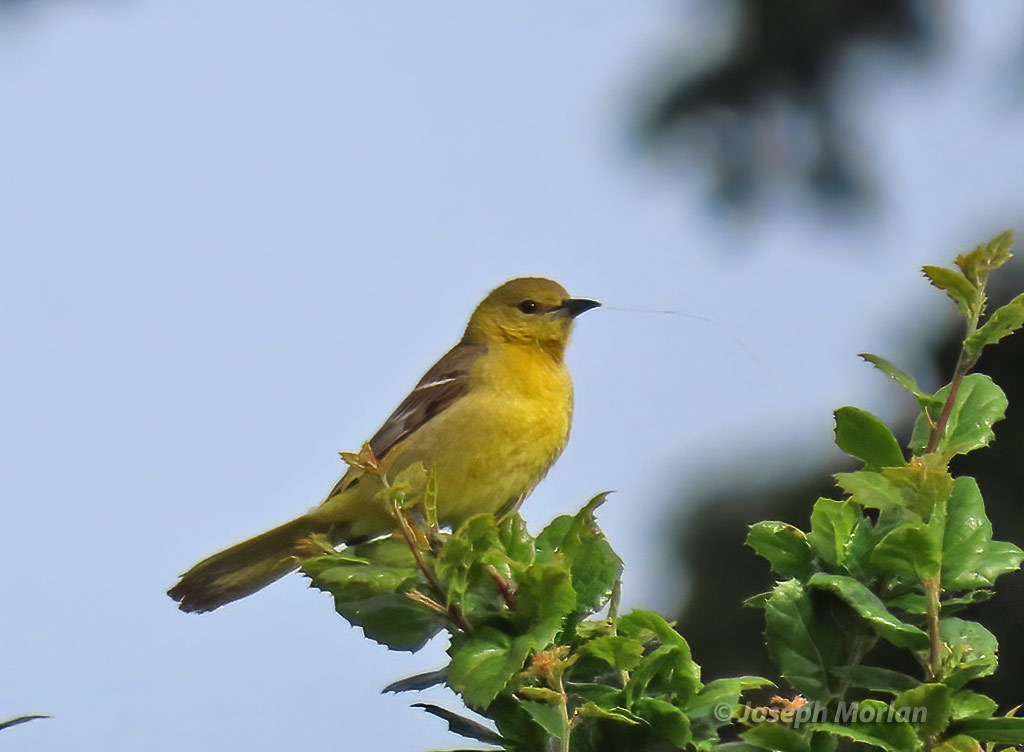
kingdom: Animalia
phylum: Chordata
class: Aves
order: Passeriformes
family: Icteridae
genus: Icterus
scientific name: Icterus cucullatus
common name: Hooded oriole
